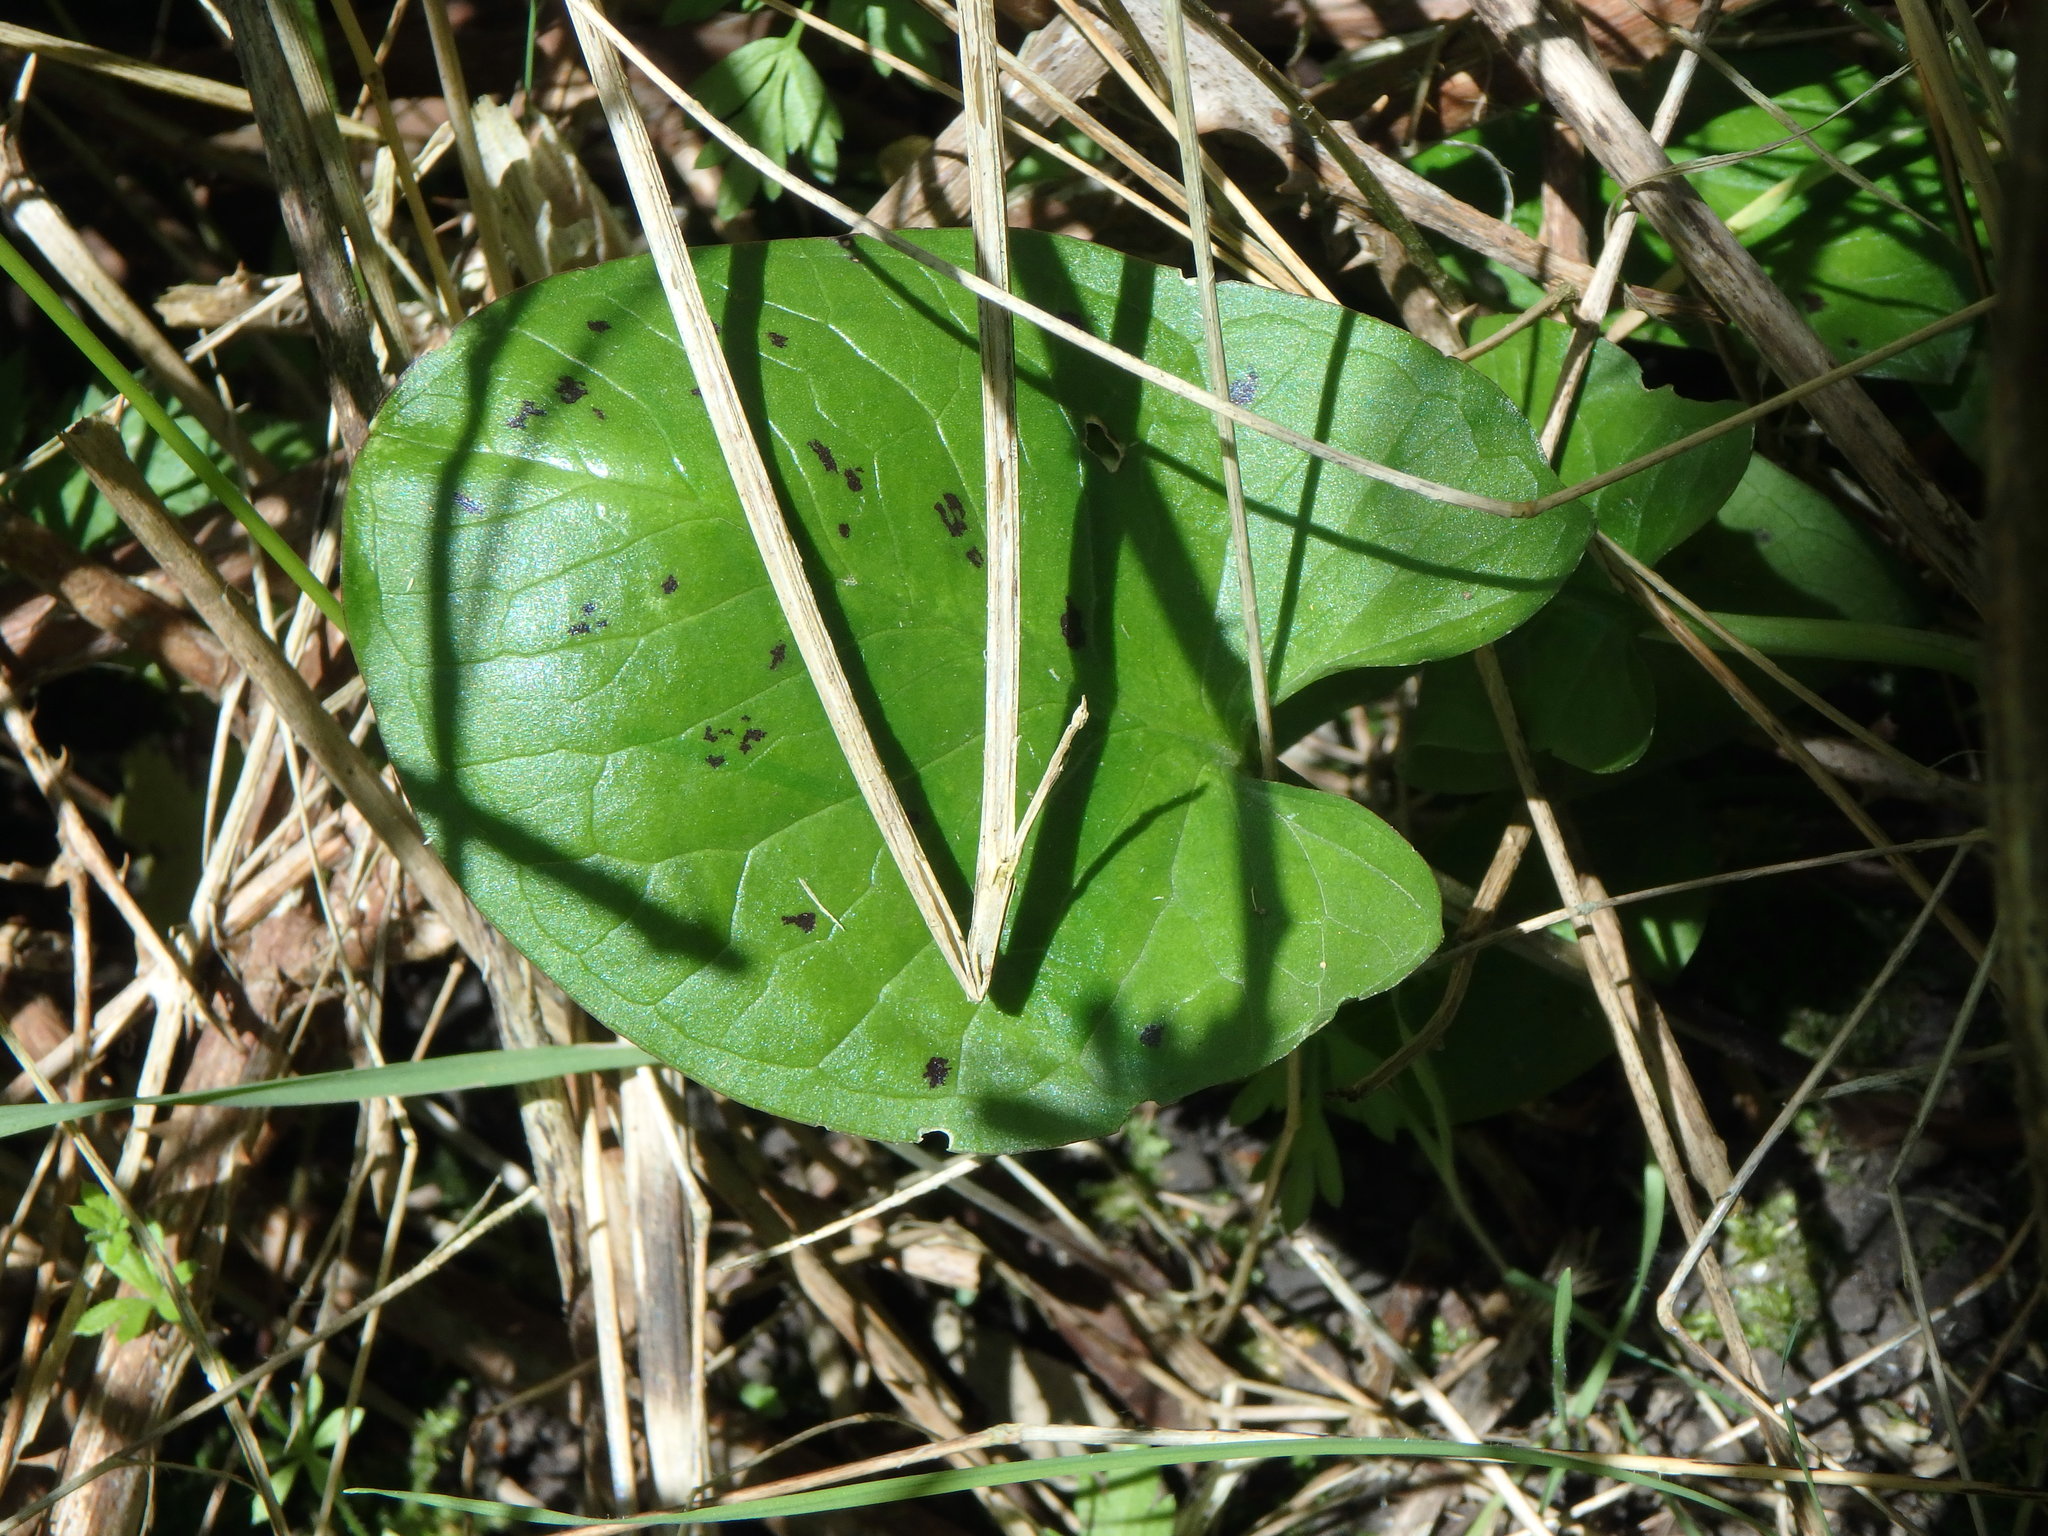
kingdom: Plantae
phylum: Tracheophyta
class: Liliopsida
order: Alismatales
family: Araceae
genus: Arum
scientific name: Arum maculatum
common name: Lords-and-ladies
